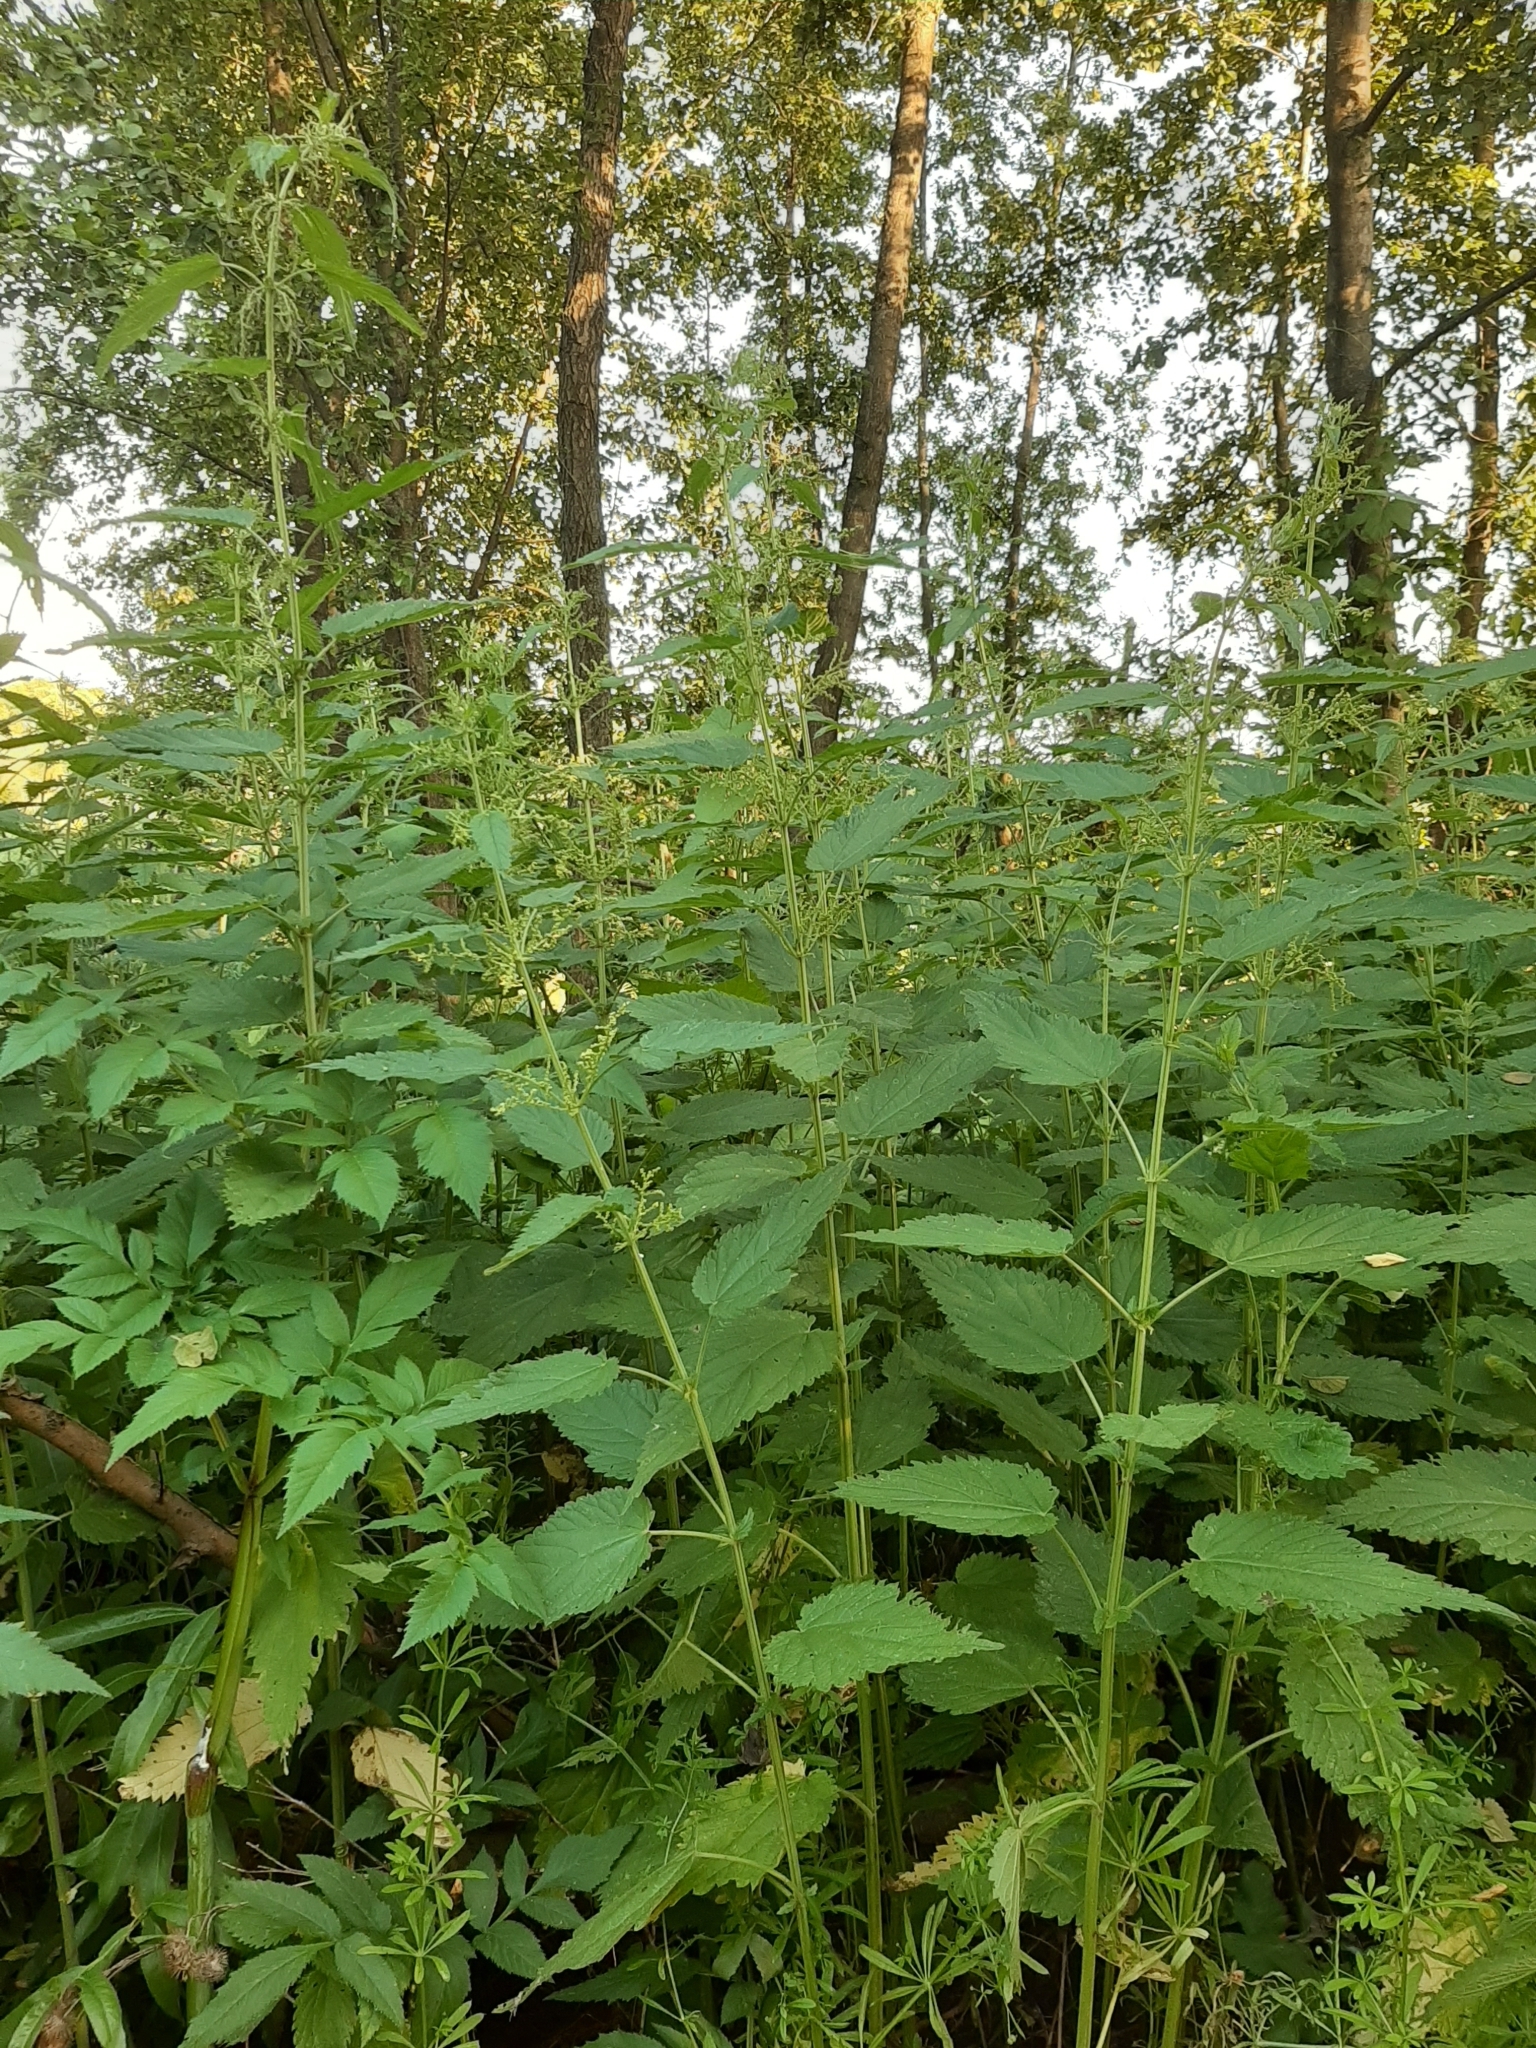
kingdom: Plantae
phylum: Tracheophyta
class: Magnoliopsida
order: Rosales
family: Urticaceae
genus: Urtica
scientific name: Urtica dioica
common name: Common nettle
